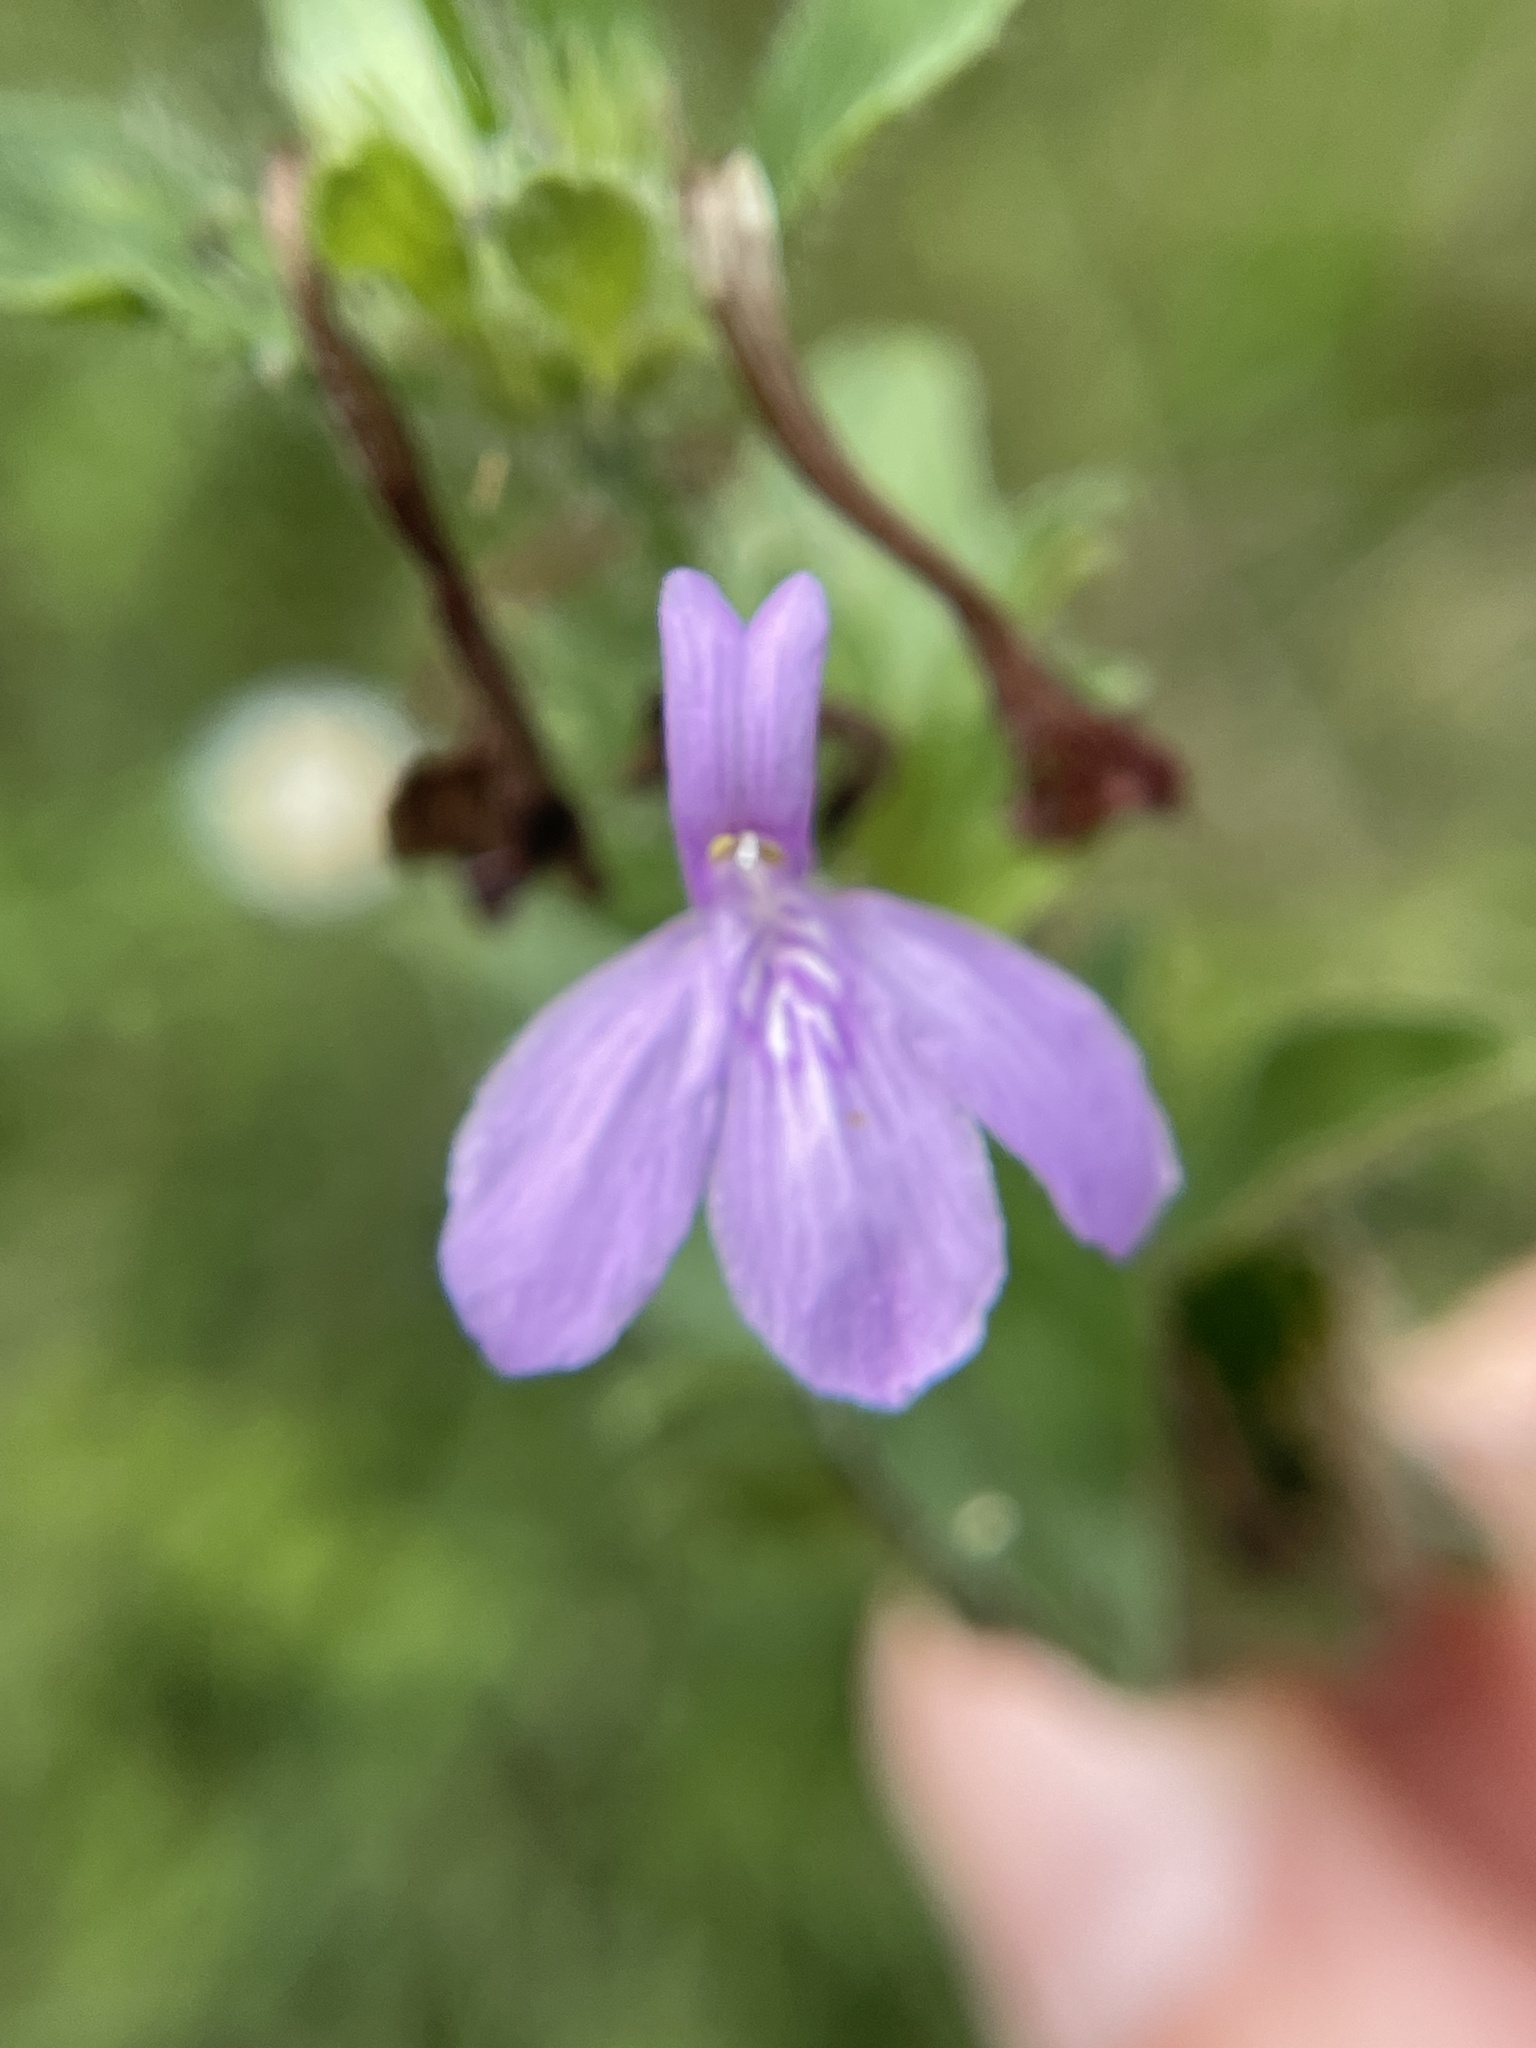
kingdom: Plantae
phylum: Tracheophyta
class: Magnoliopsida
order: Lamiales
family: Acanthaceae
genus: Justicia
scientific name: Justicia pilosella
